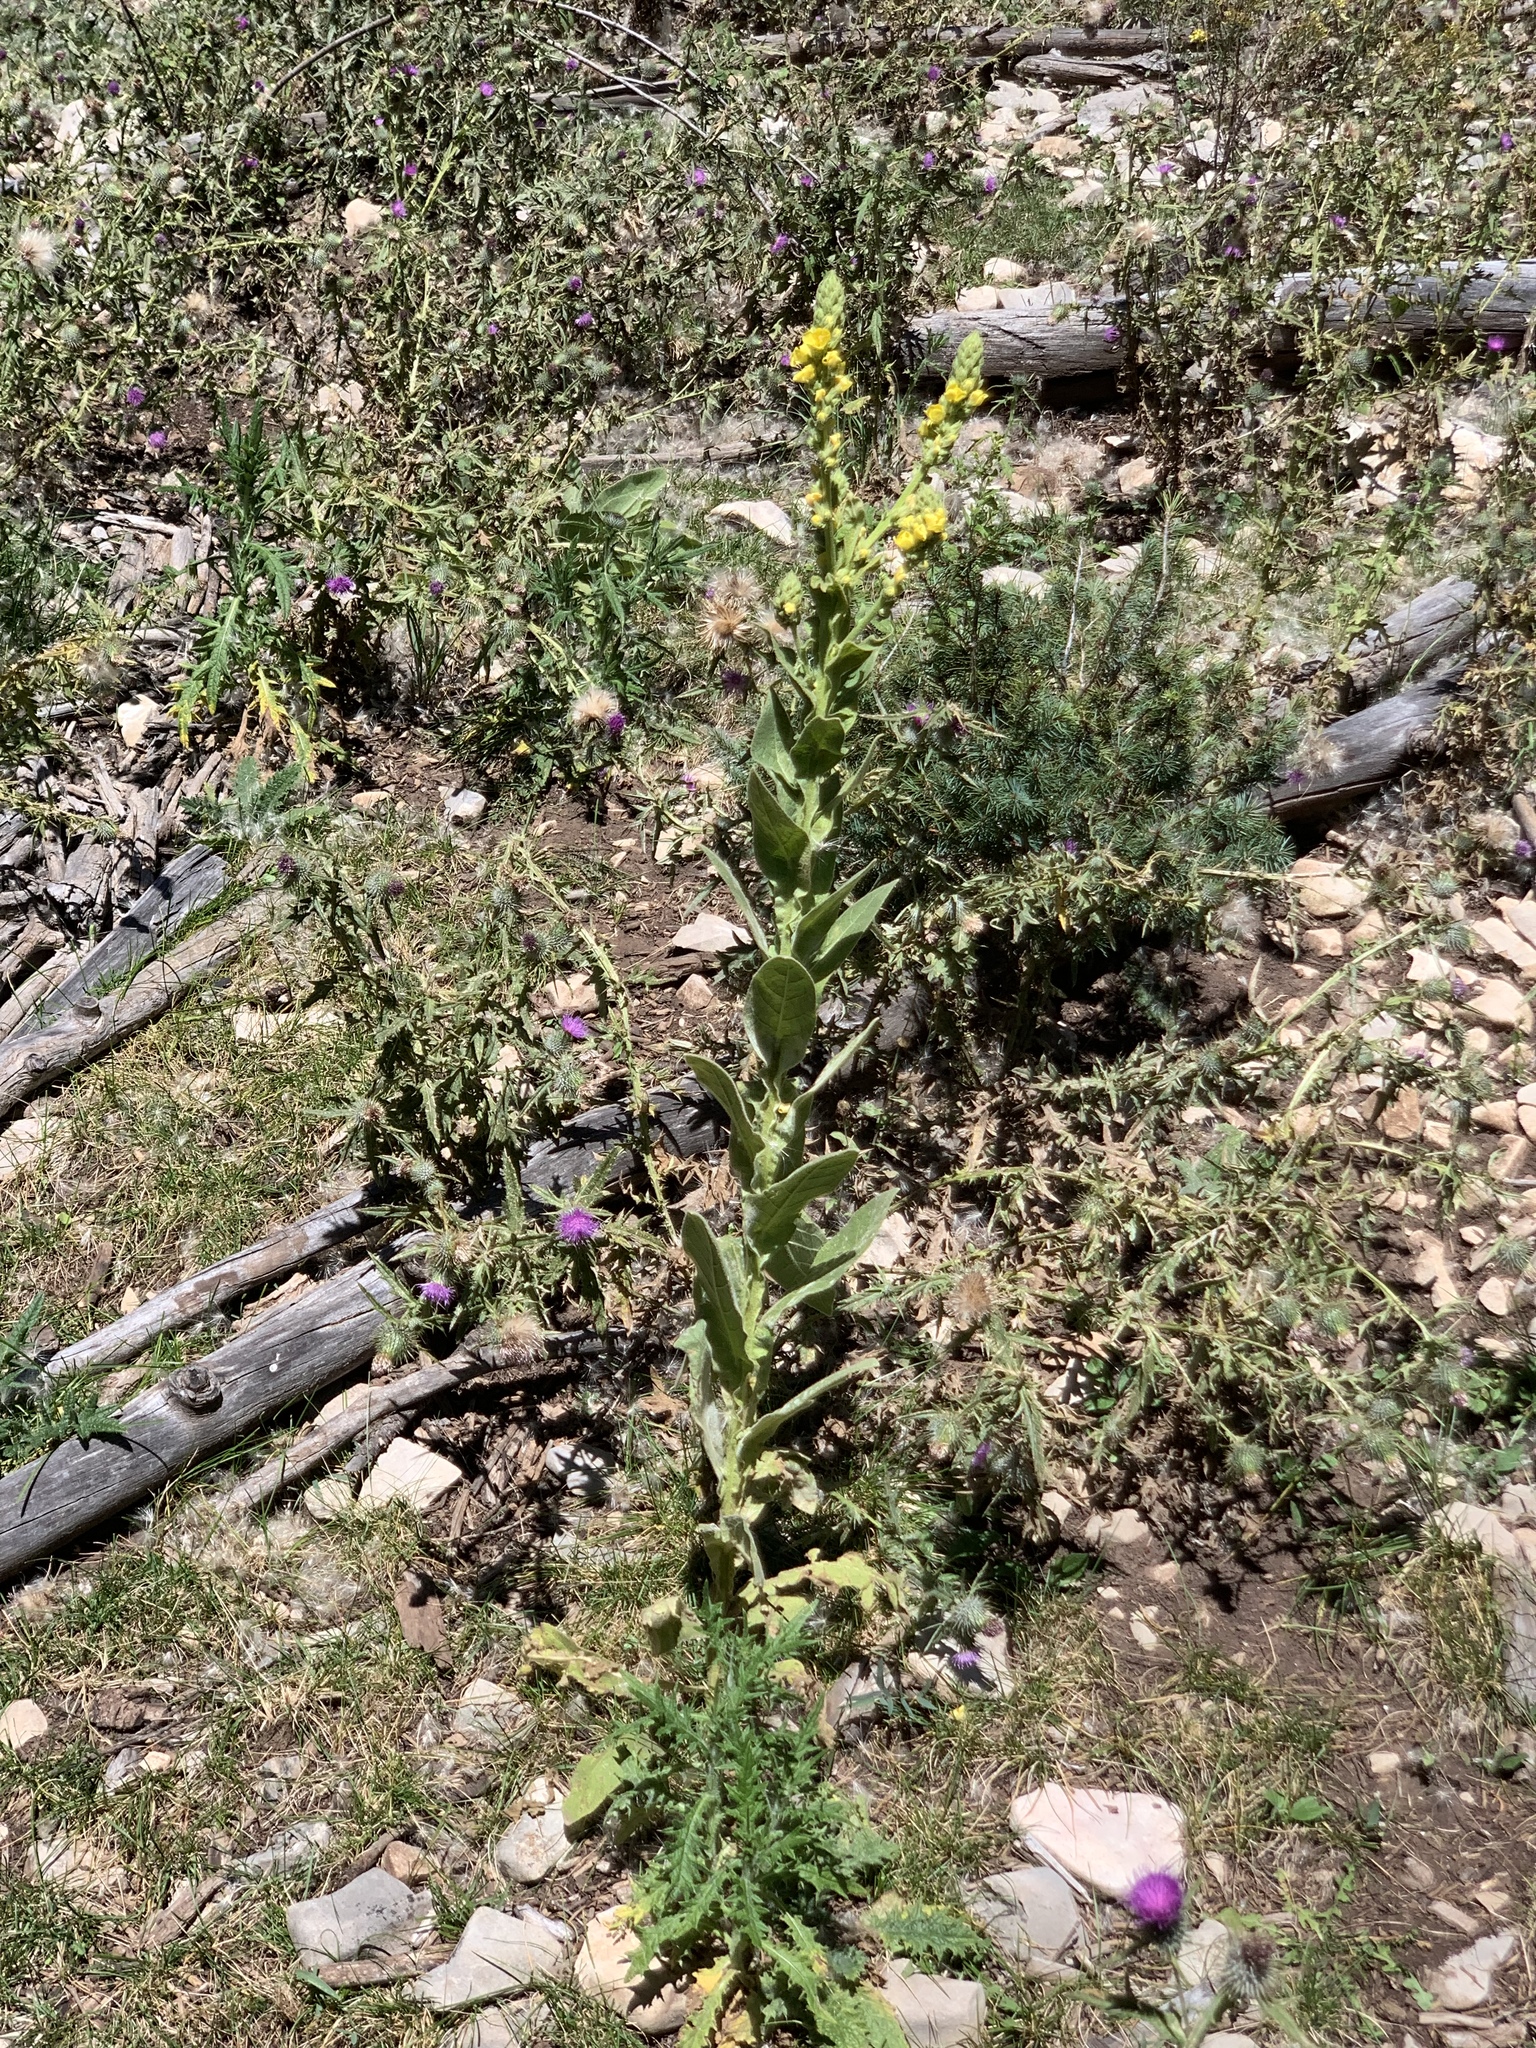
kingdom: Plantae
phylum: Tracheophyta
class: Magnoliopsida
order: Lamiales
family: Scrophulariaceae
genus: Verbascum
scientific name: Verbascum thapsus
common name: Common mullein
